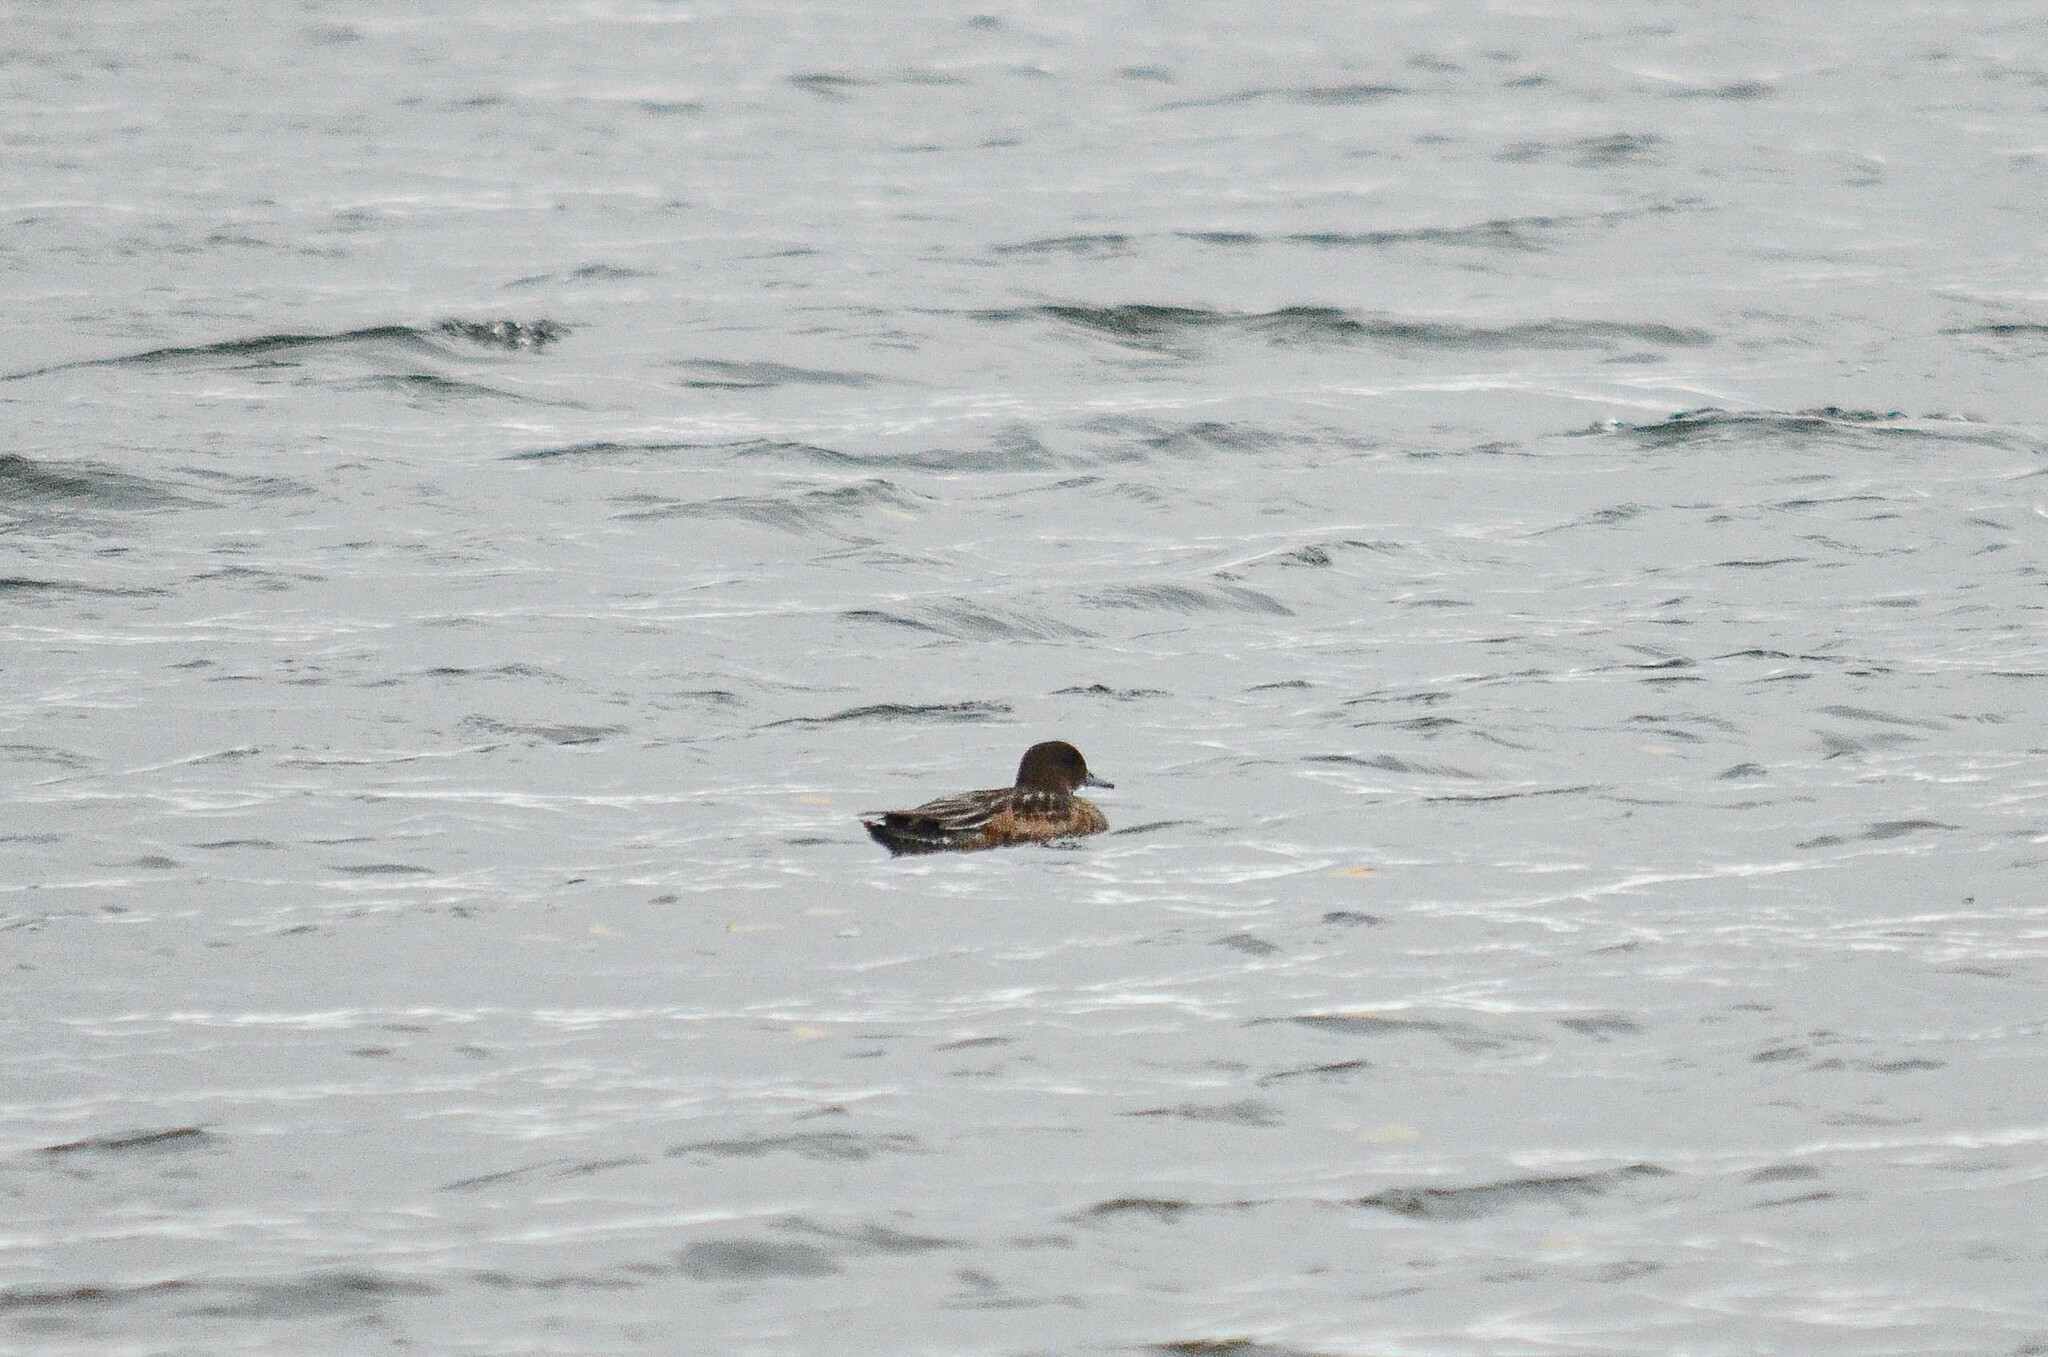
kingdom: Animalia
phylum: Chordata
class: Aves
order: Anseriformes
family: Anatidae
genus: Mareca
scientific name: Mareca penelope
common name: Eurasian wigeon
